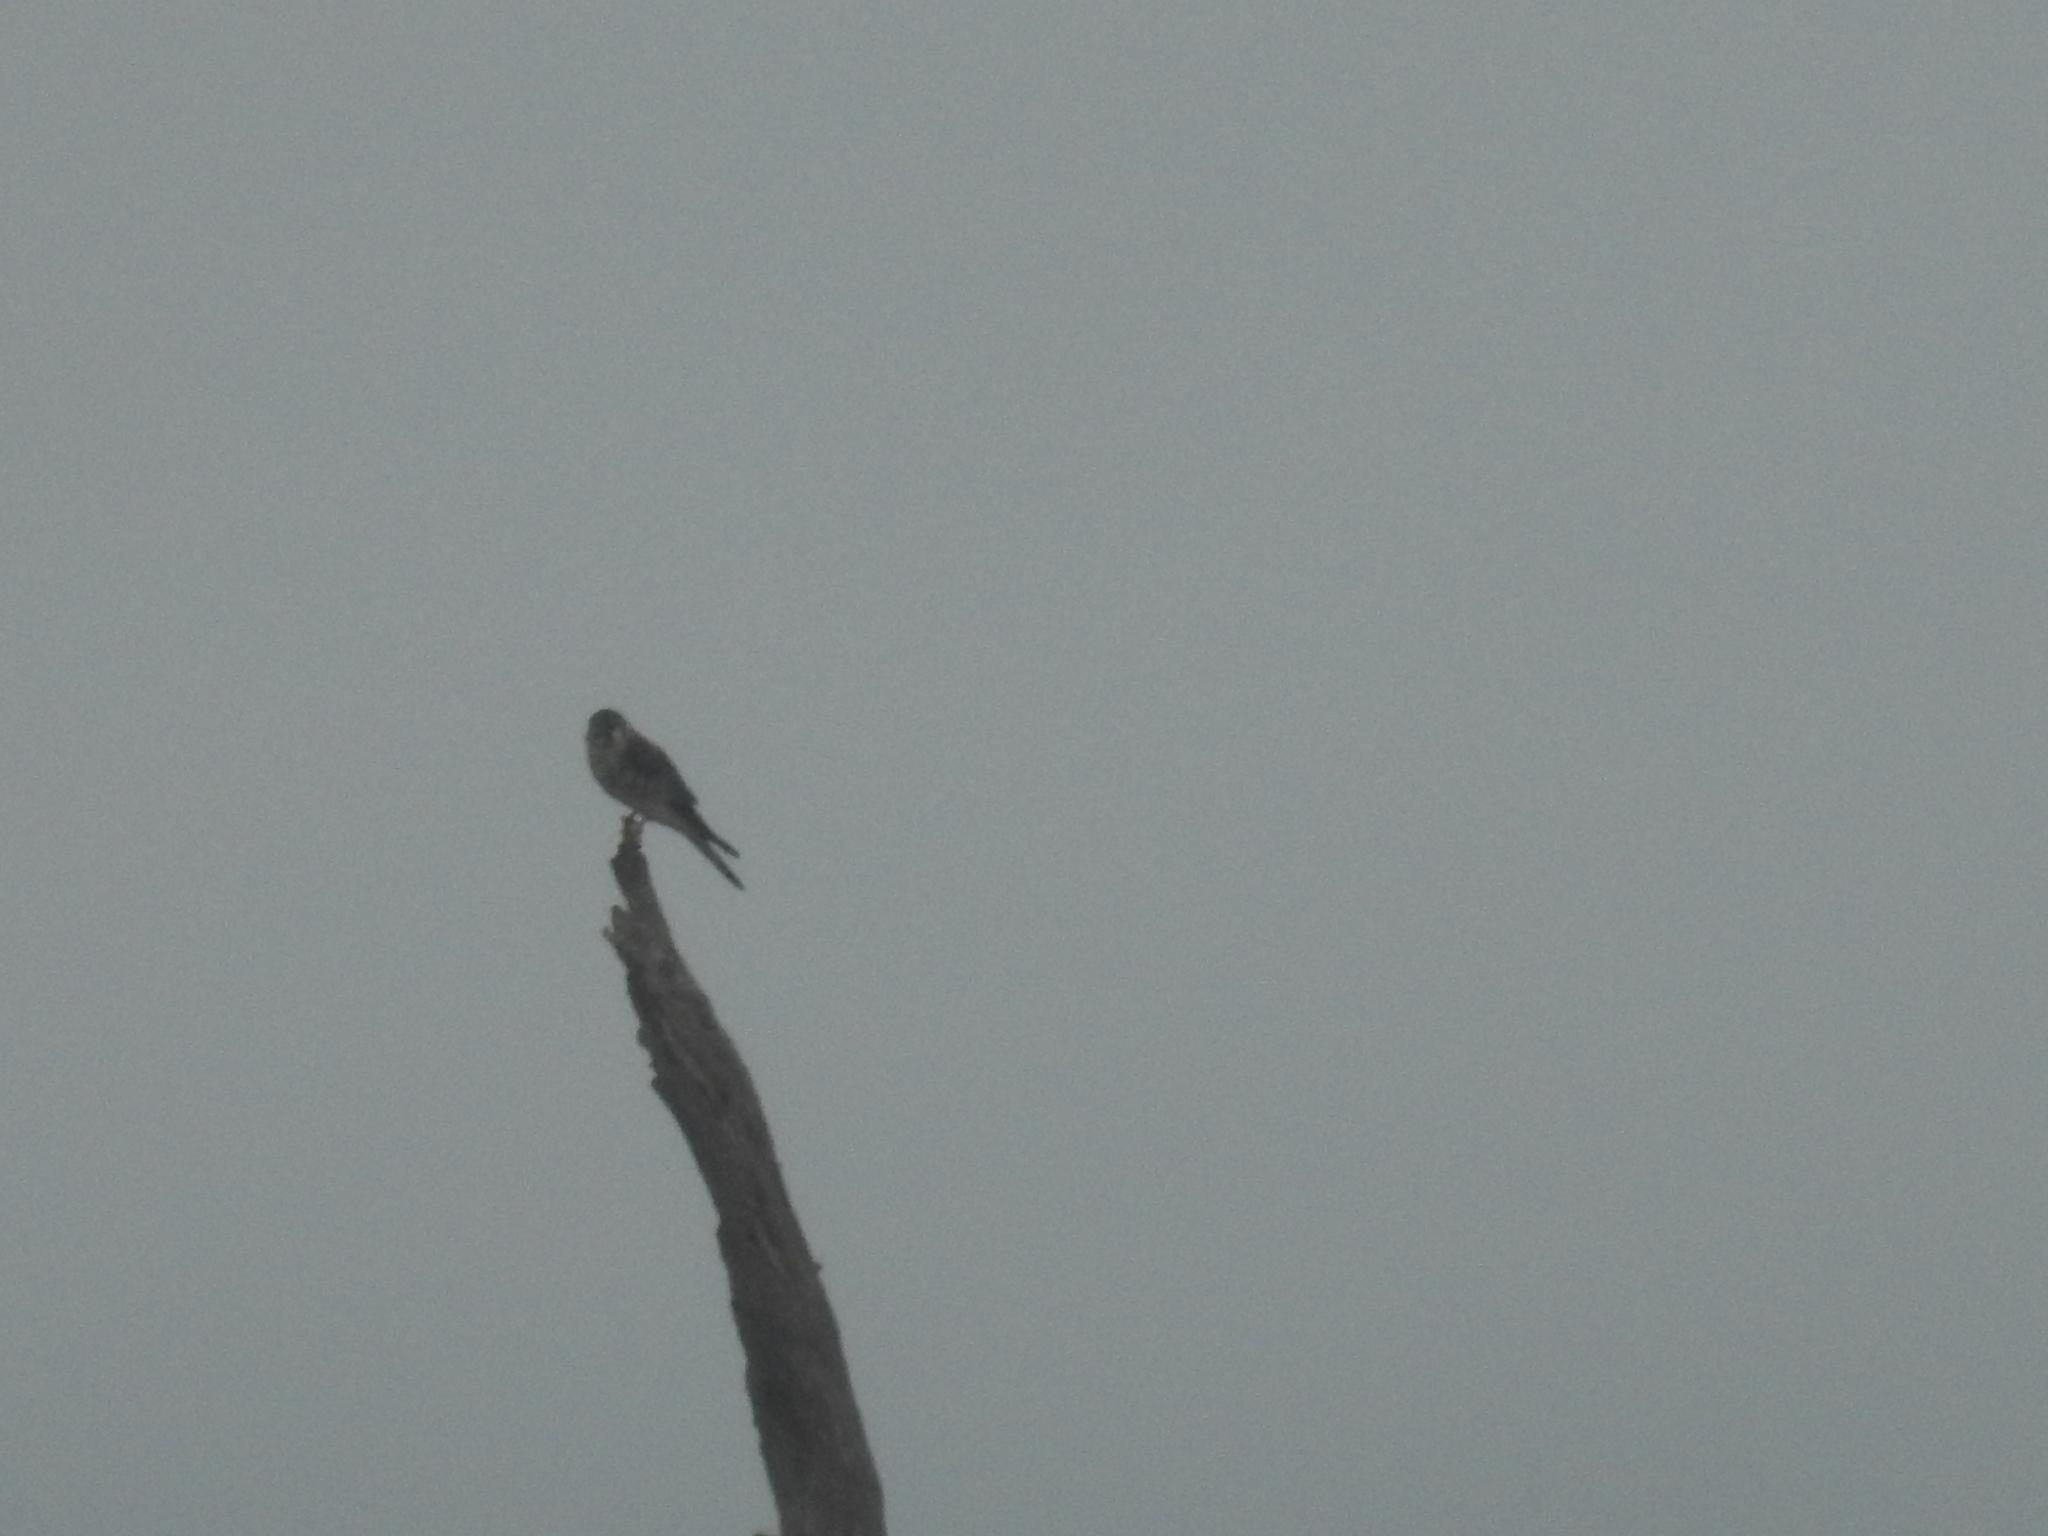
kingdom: Animalia
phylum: Chordata
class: Aves
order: Falconiformes
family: Falconidae
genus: Falco
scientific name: Falco sparverius
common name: American kestrel
